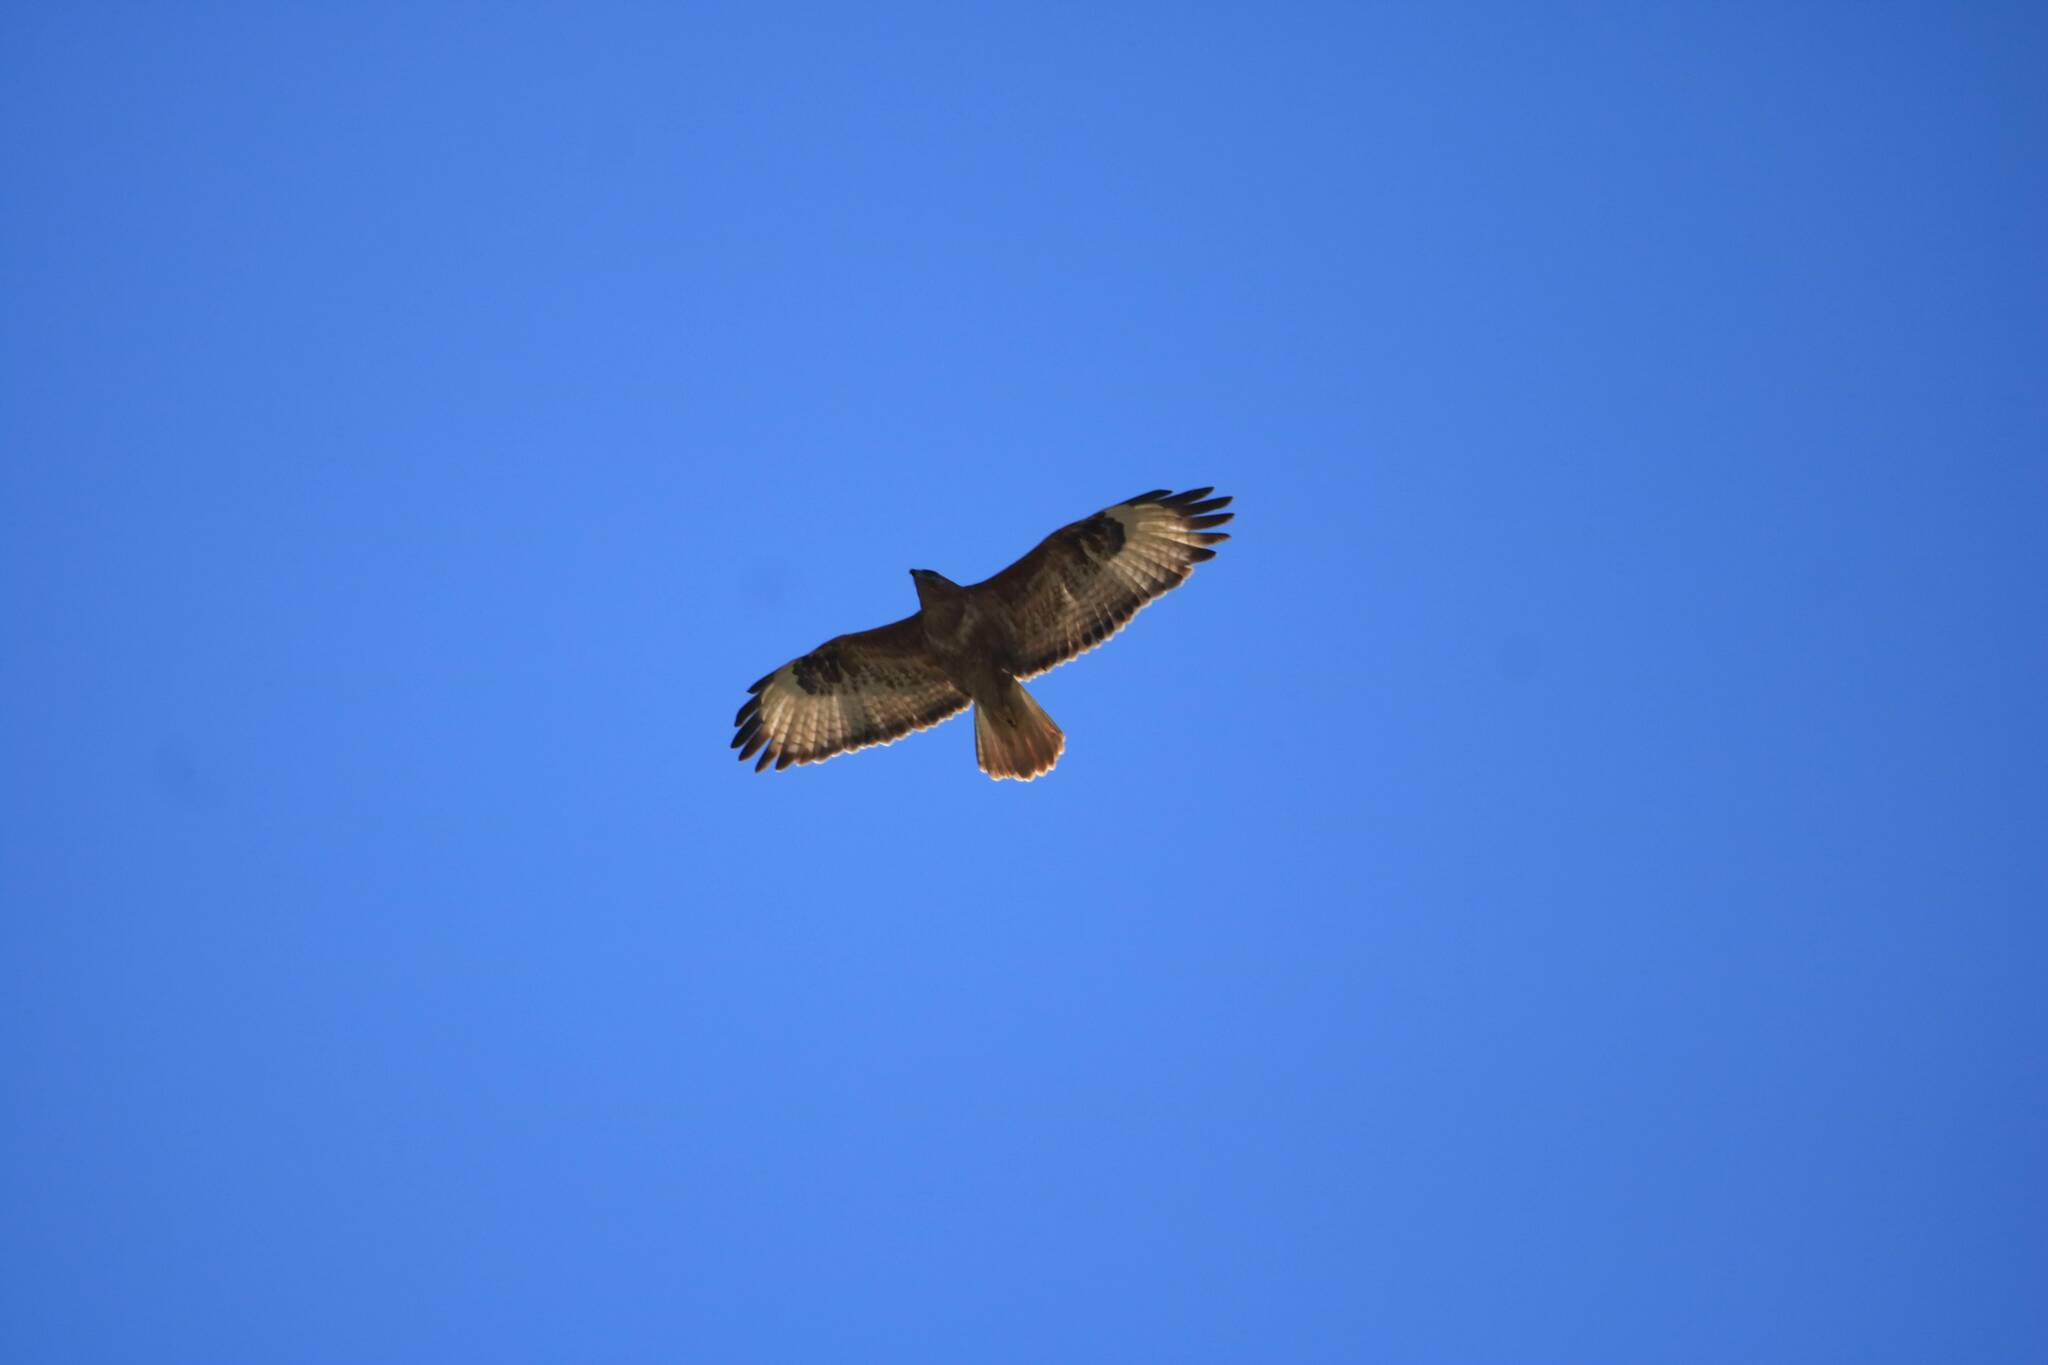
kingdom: Animalia
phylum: Chordata
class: Aves
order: Accipitriformes
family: Accipitridae
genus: Buteo
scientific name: Buteo rufinus
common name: Long-legged buzzard
